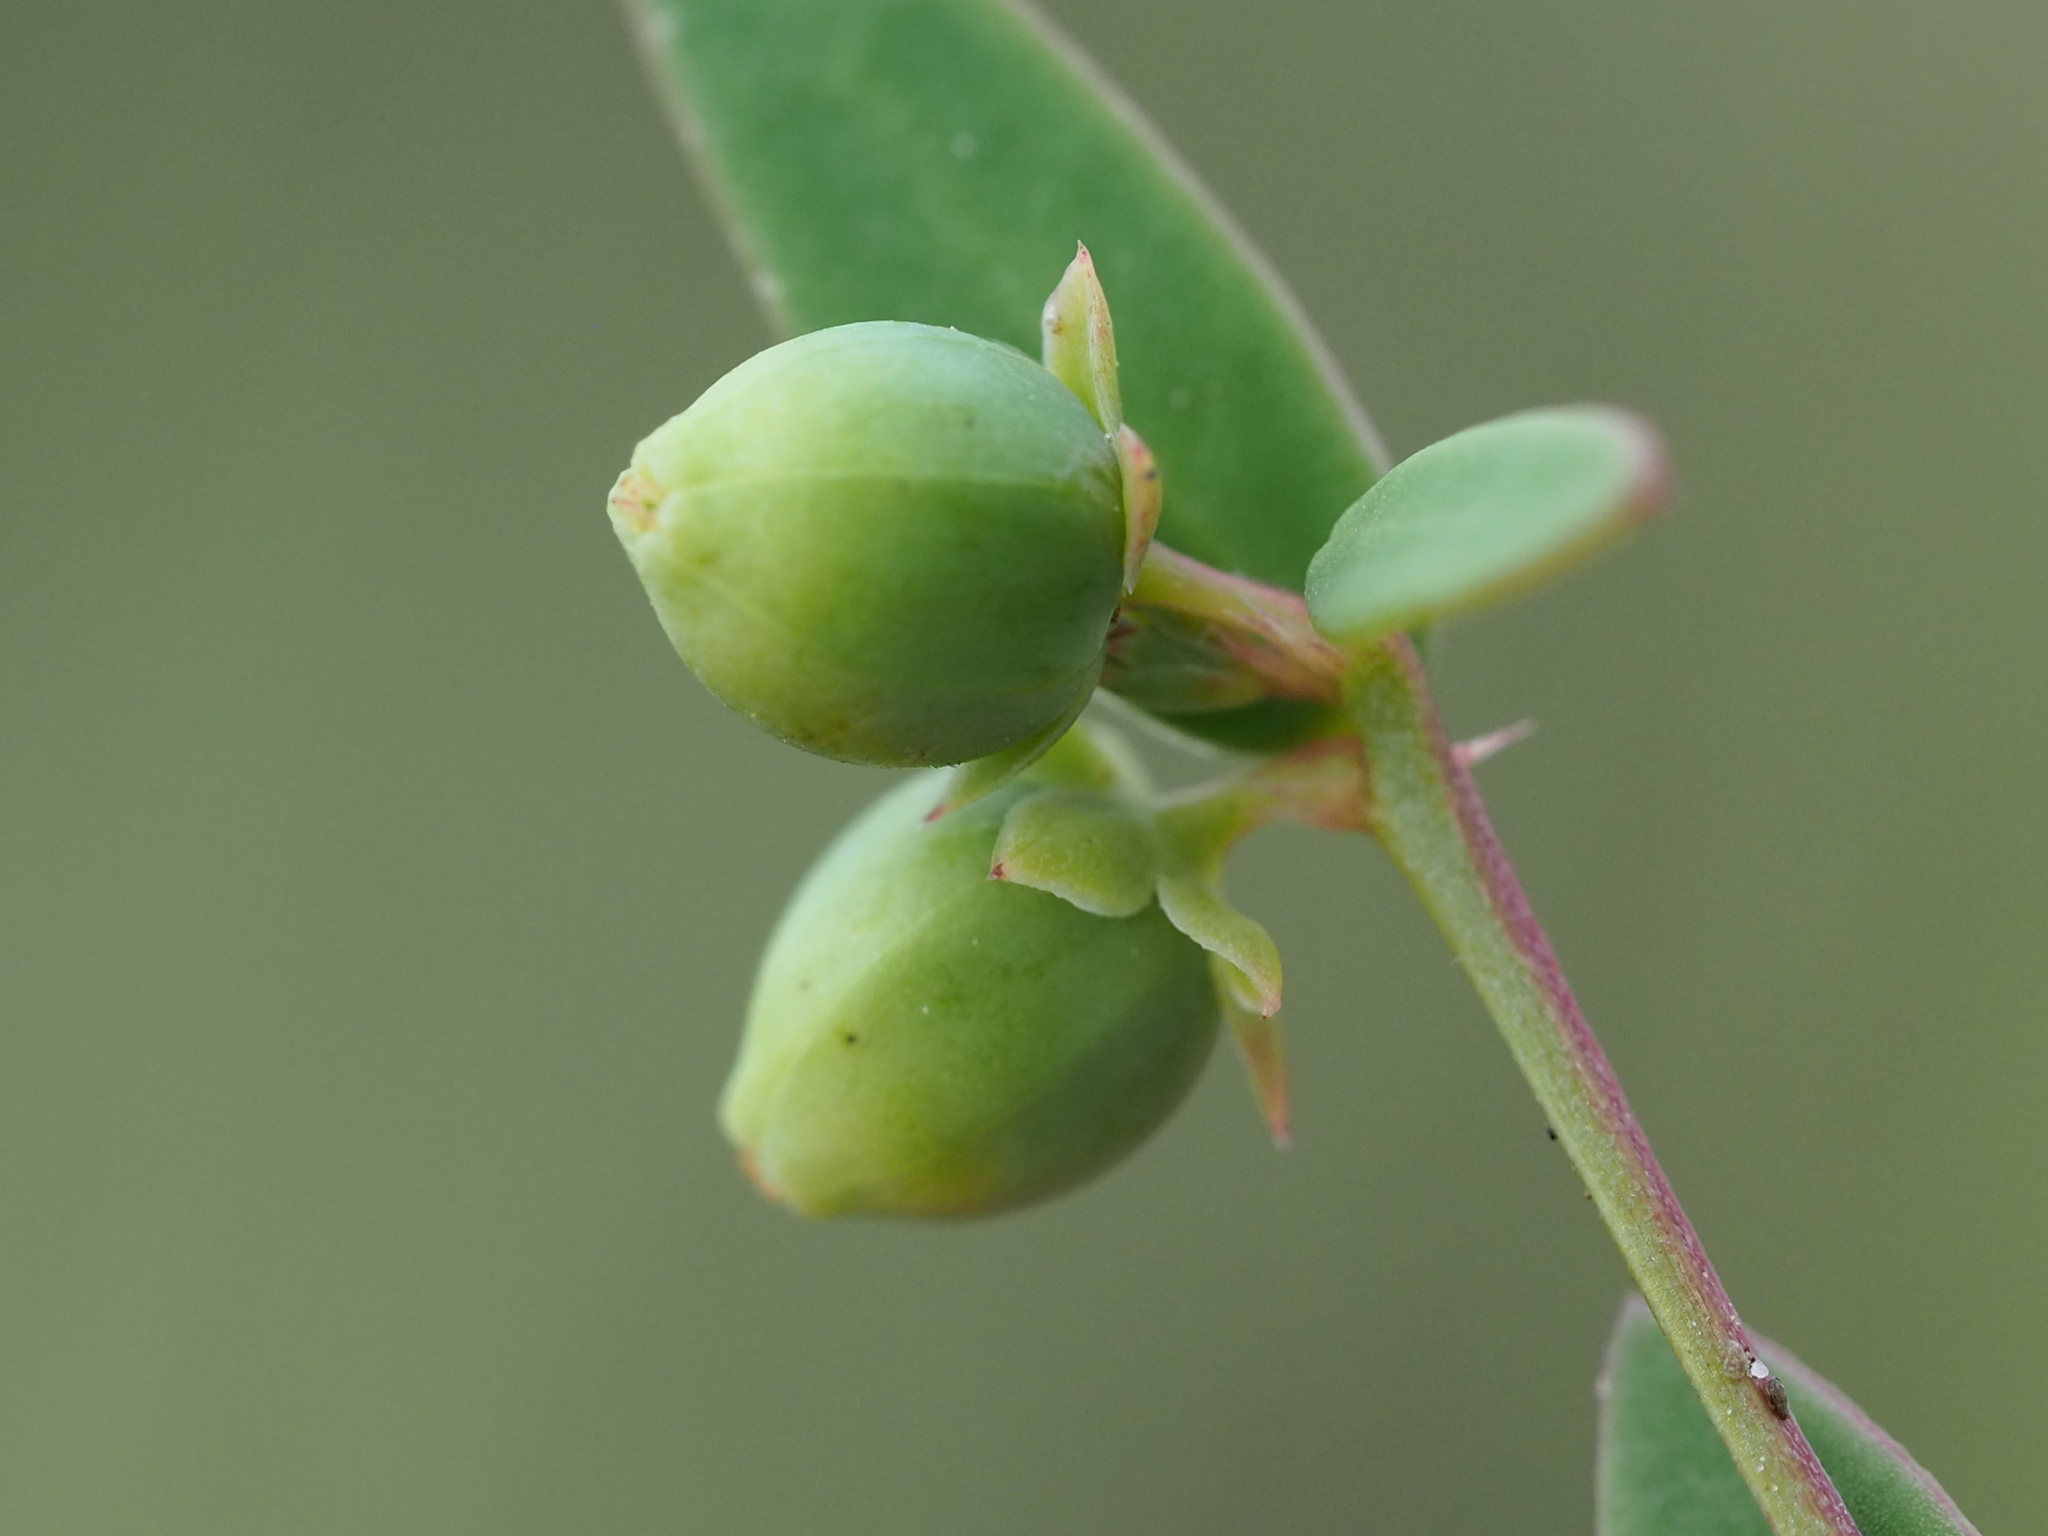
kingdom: Plantae
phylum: Tracheophyta
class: Magnoliopsida
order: Malpighiales
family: Phyllanthaceae
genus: Synostemon
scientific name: Synostemon bacciformis
